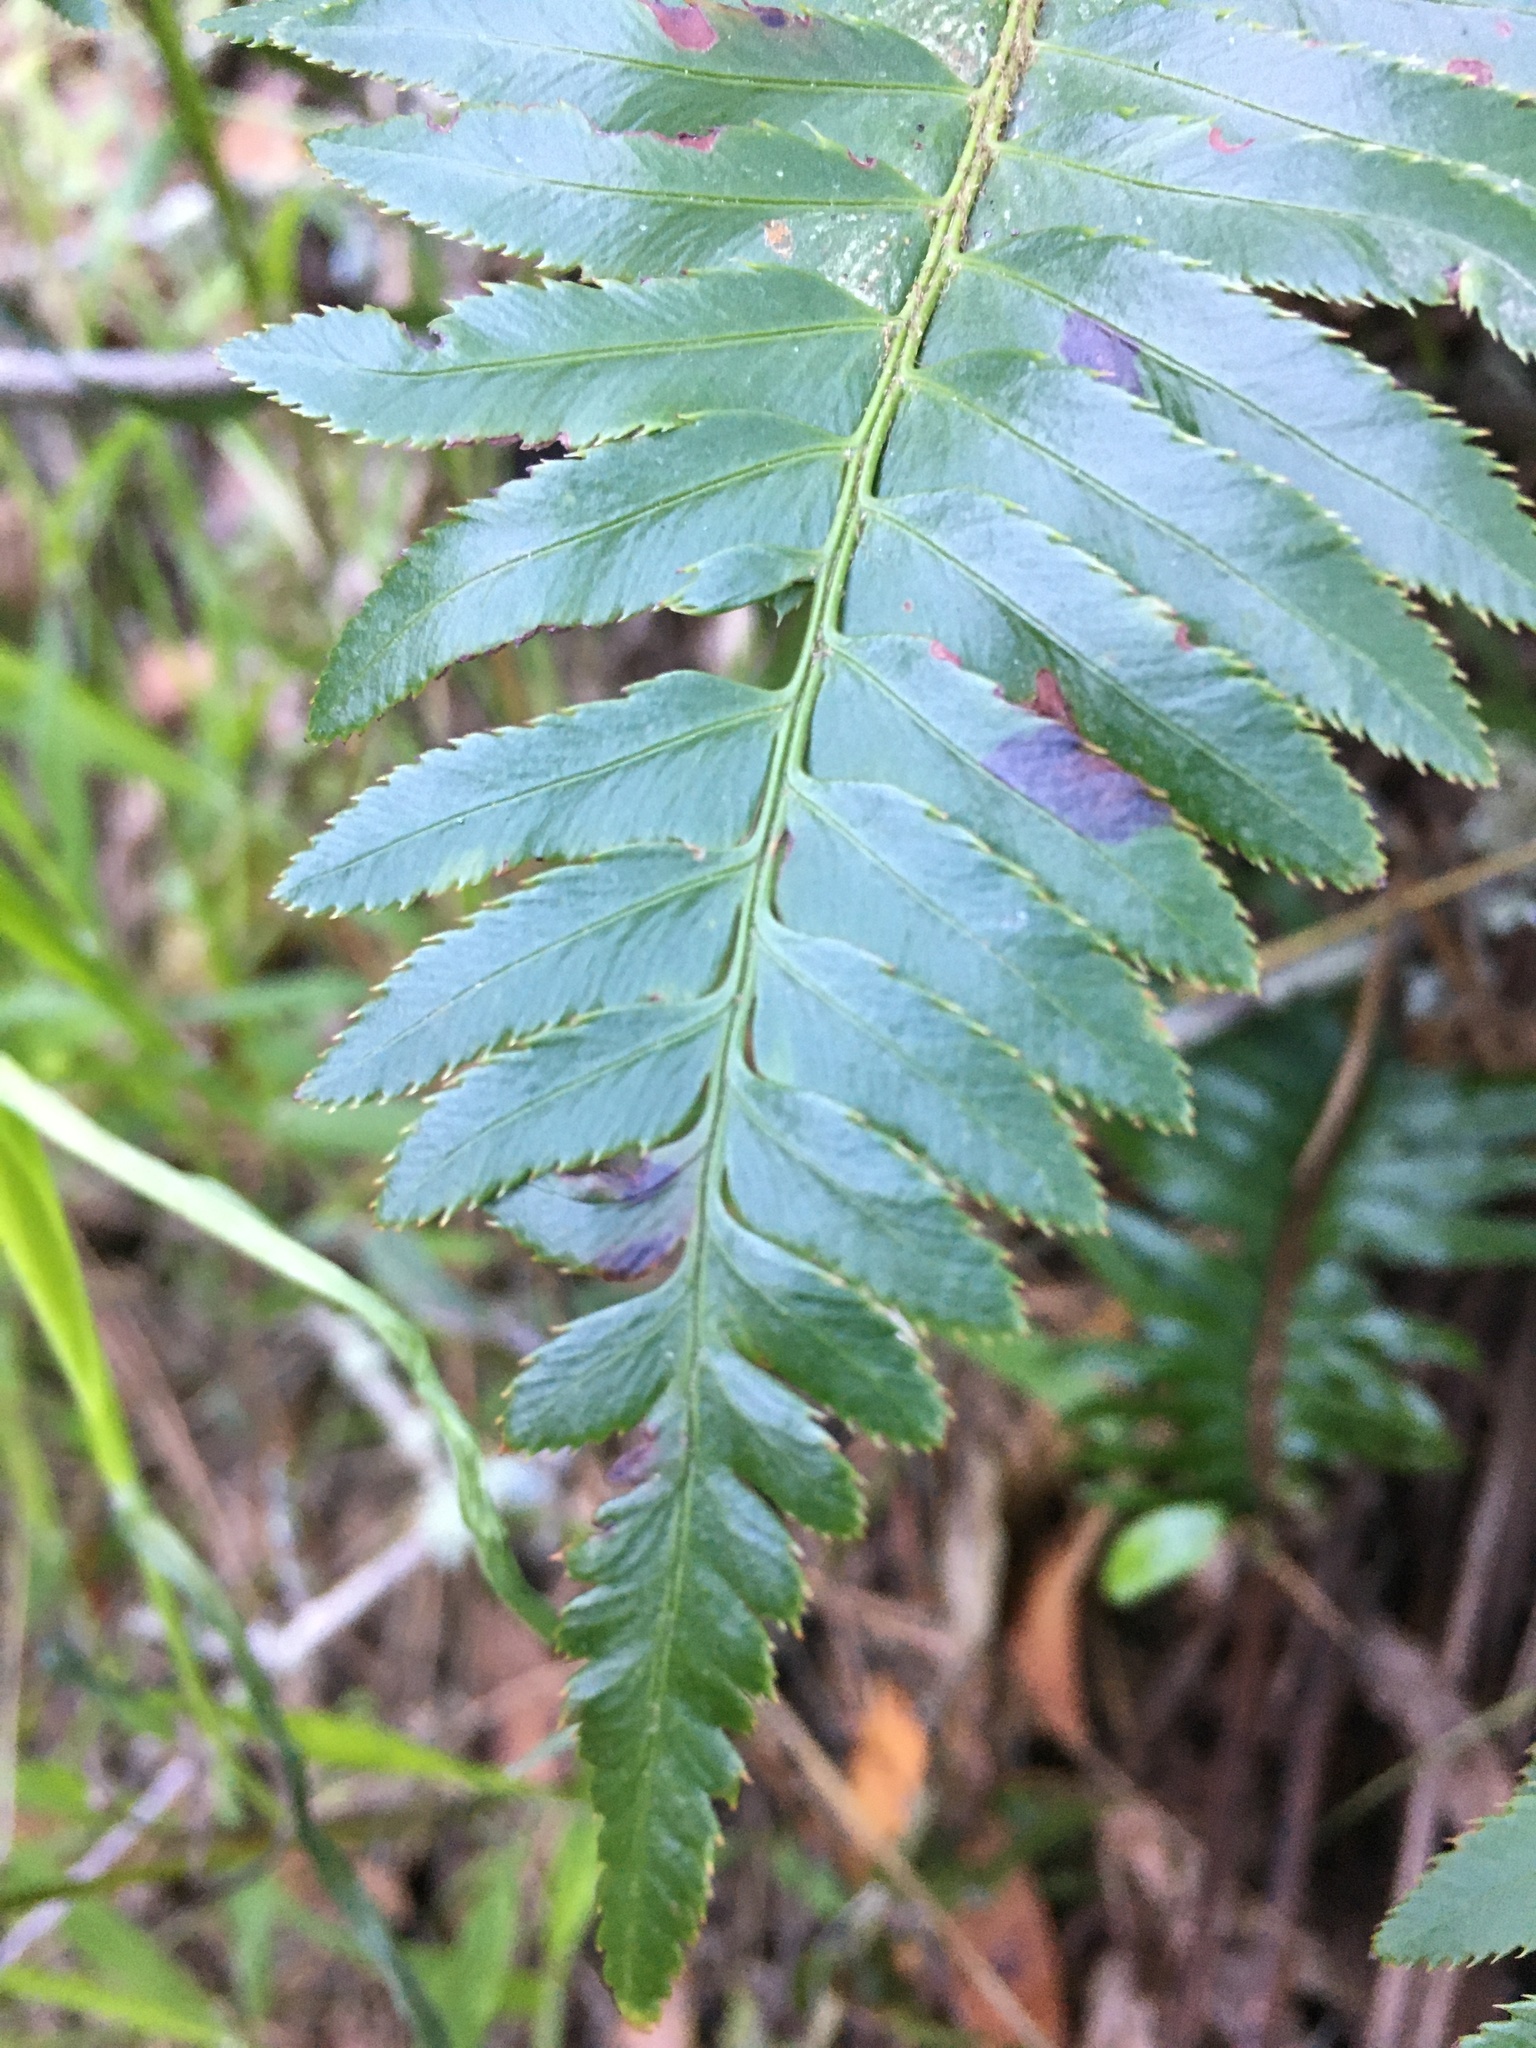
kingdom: Plantae
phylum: Tracheophyta
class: Polypodiopsida
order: Polypodiales
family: Dryopteridaceae
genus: Polystichum
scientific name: Polystichum munitum
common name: Western sword-fern
